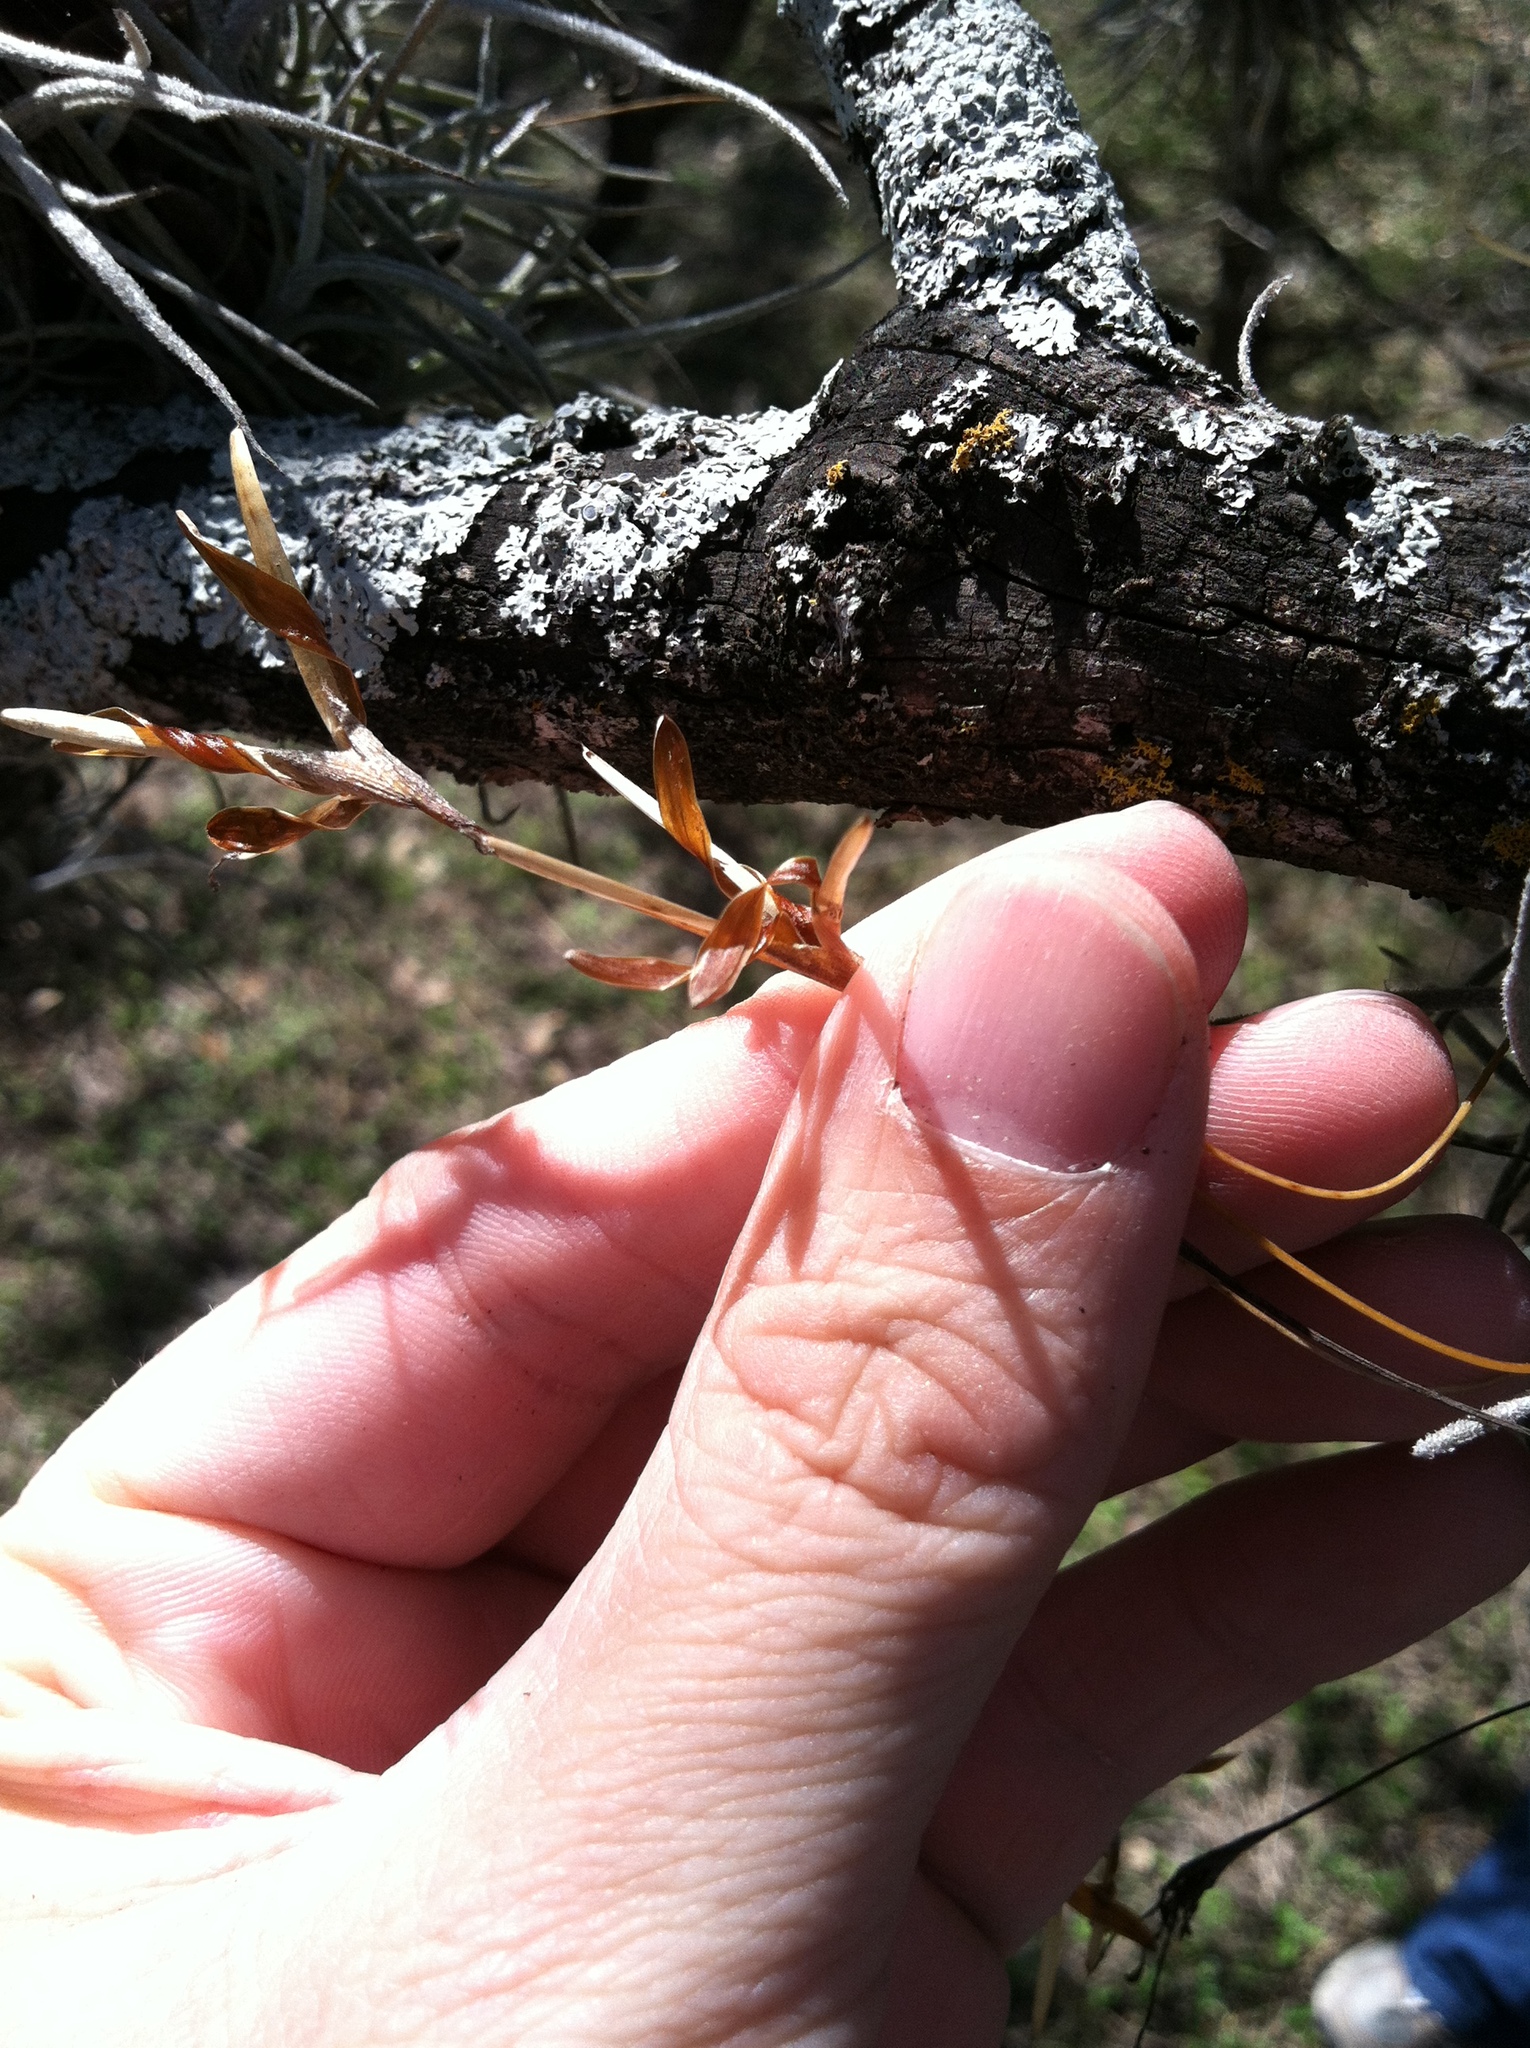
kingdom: Plantae
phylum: Tracheophyta
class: Liliopsida
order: Poales
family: Bromeliaceae
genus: Tillandsia
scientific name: Tillandsia recurvata
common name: Small ballmoss
